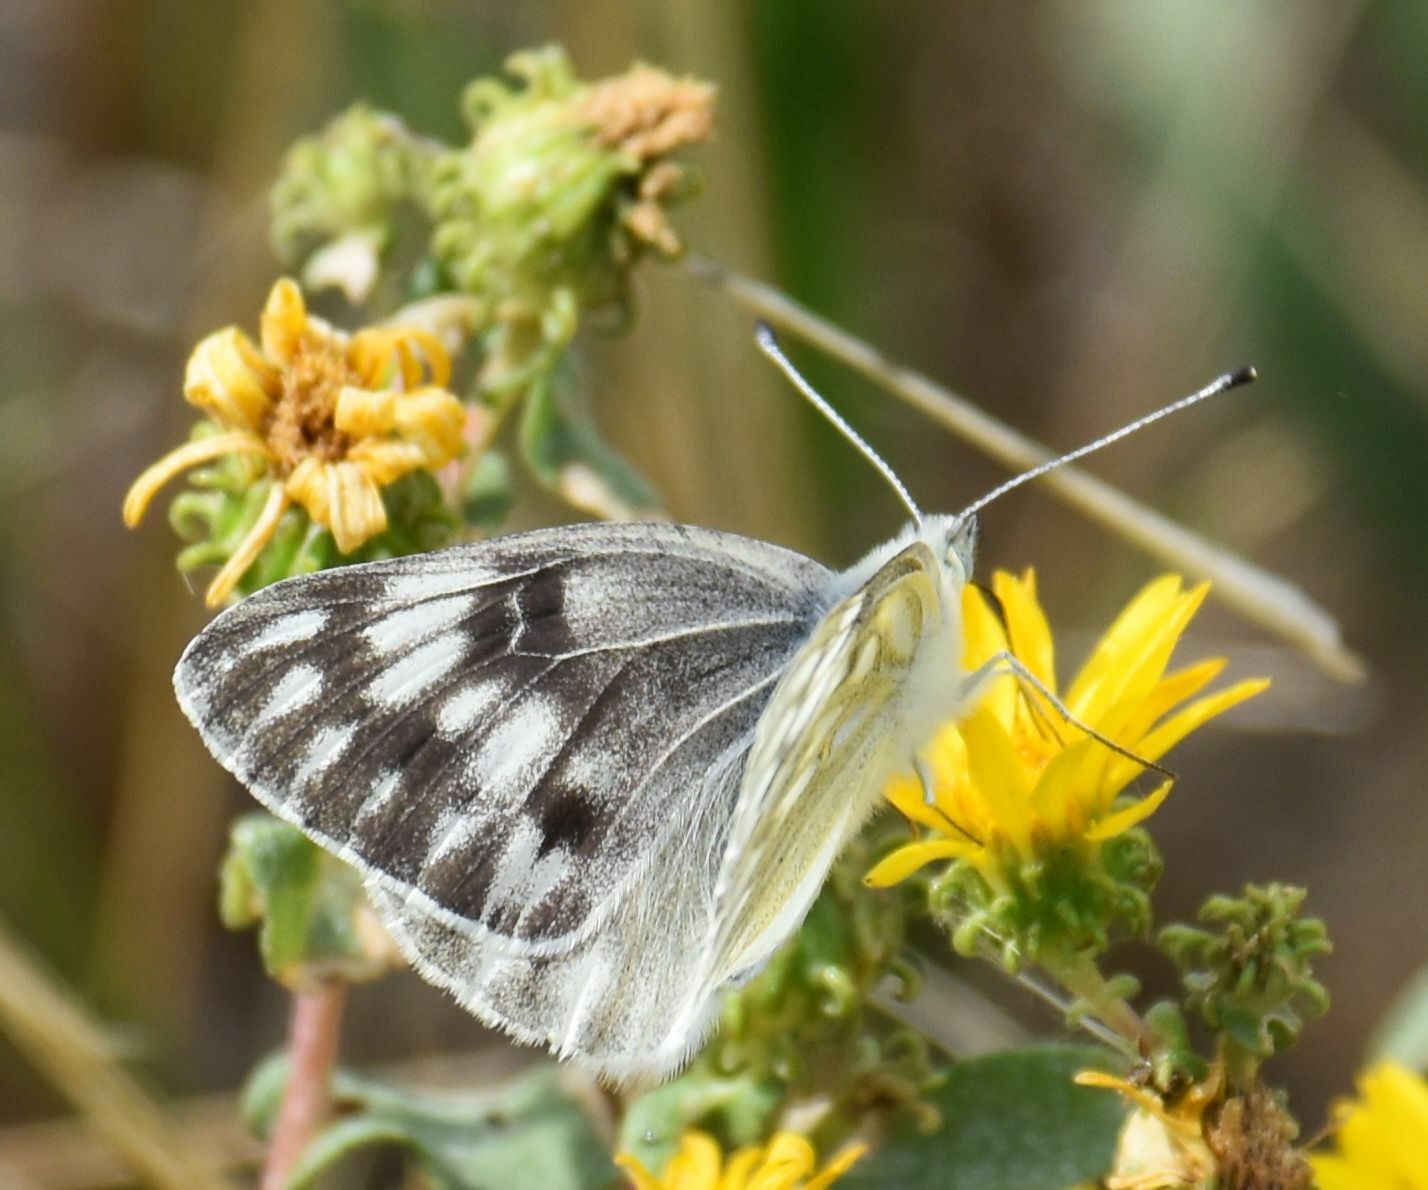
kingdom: Animalia
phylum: Arthropoda
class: Insecta
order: Lepidoptera
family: Pieridae
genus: Pontia
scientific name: Pontia occidentalis
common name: Western white
